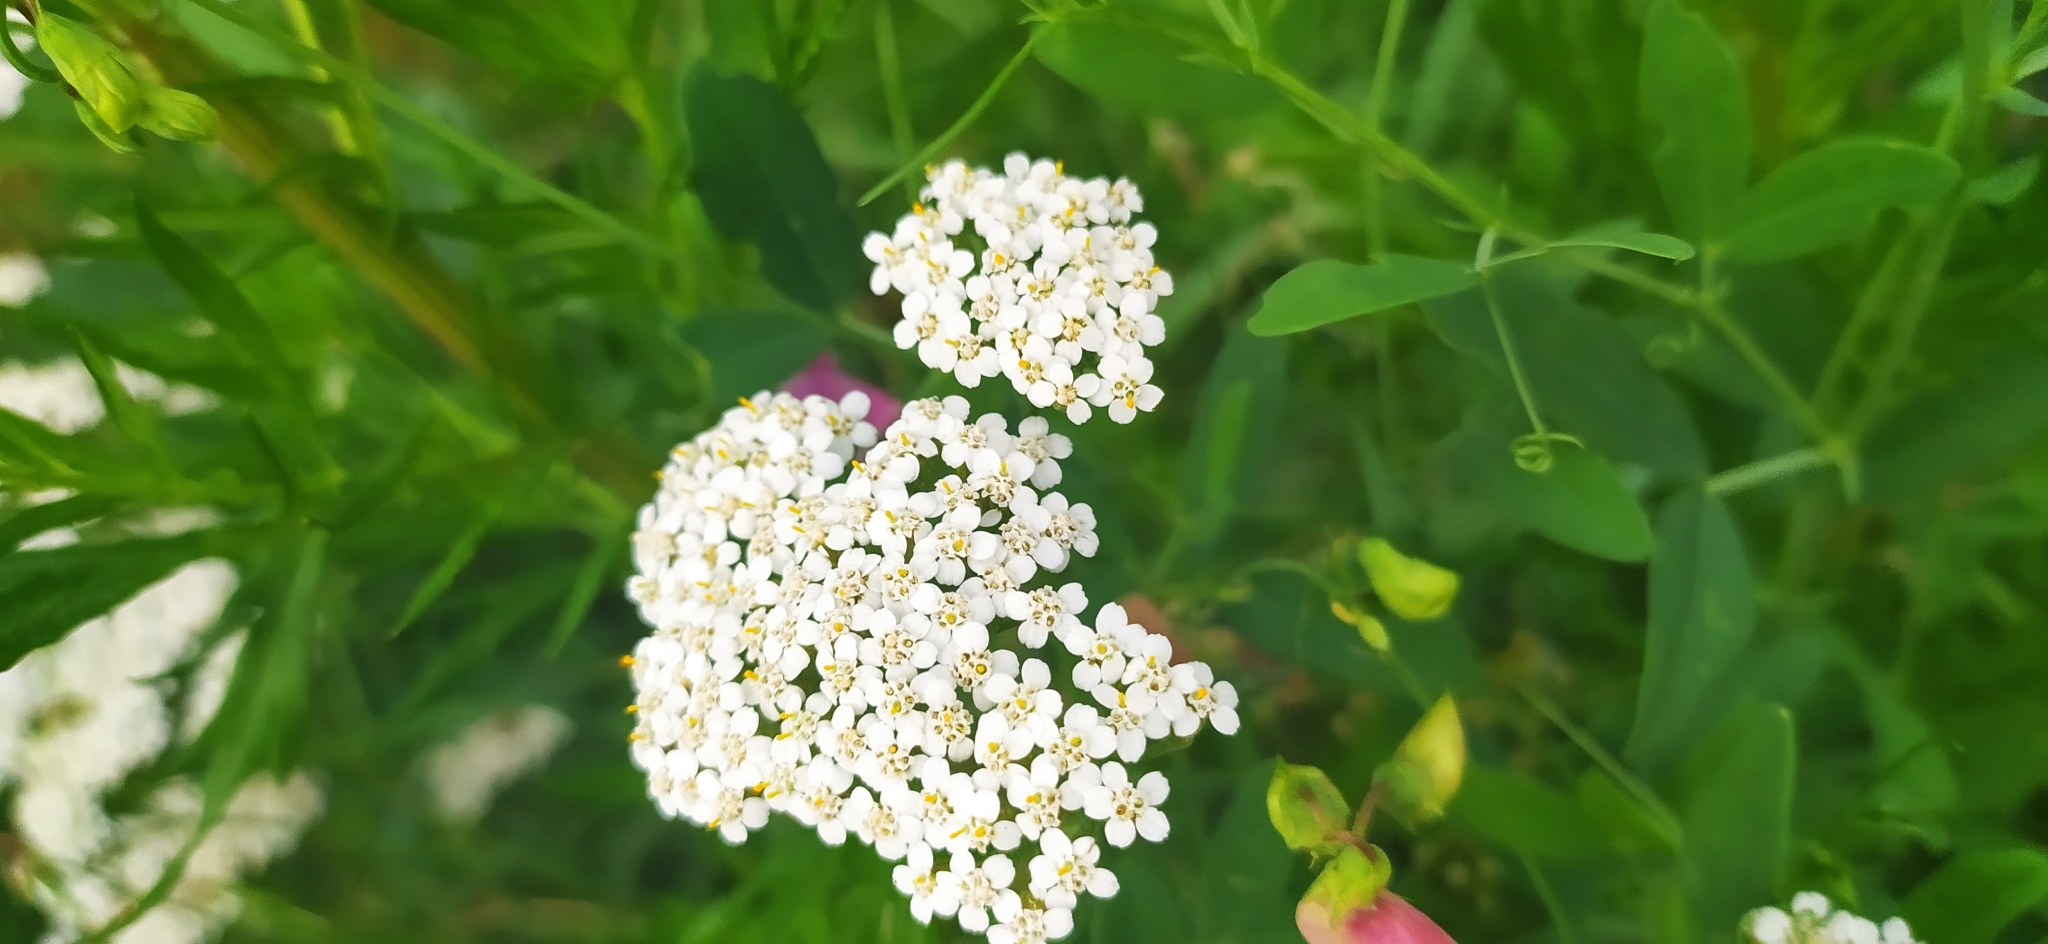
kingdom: Plantae
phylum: Tracheophyta
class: Magnoliopsida
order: Asterales
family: Asteraceae
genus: Achillea
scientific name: Achillea millefolium
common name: Yarrow
